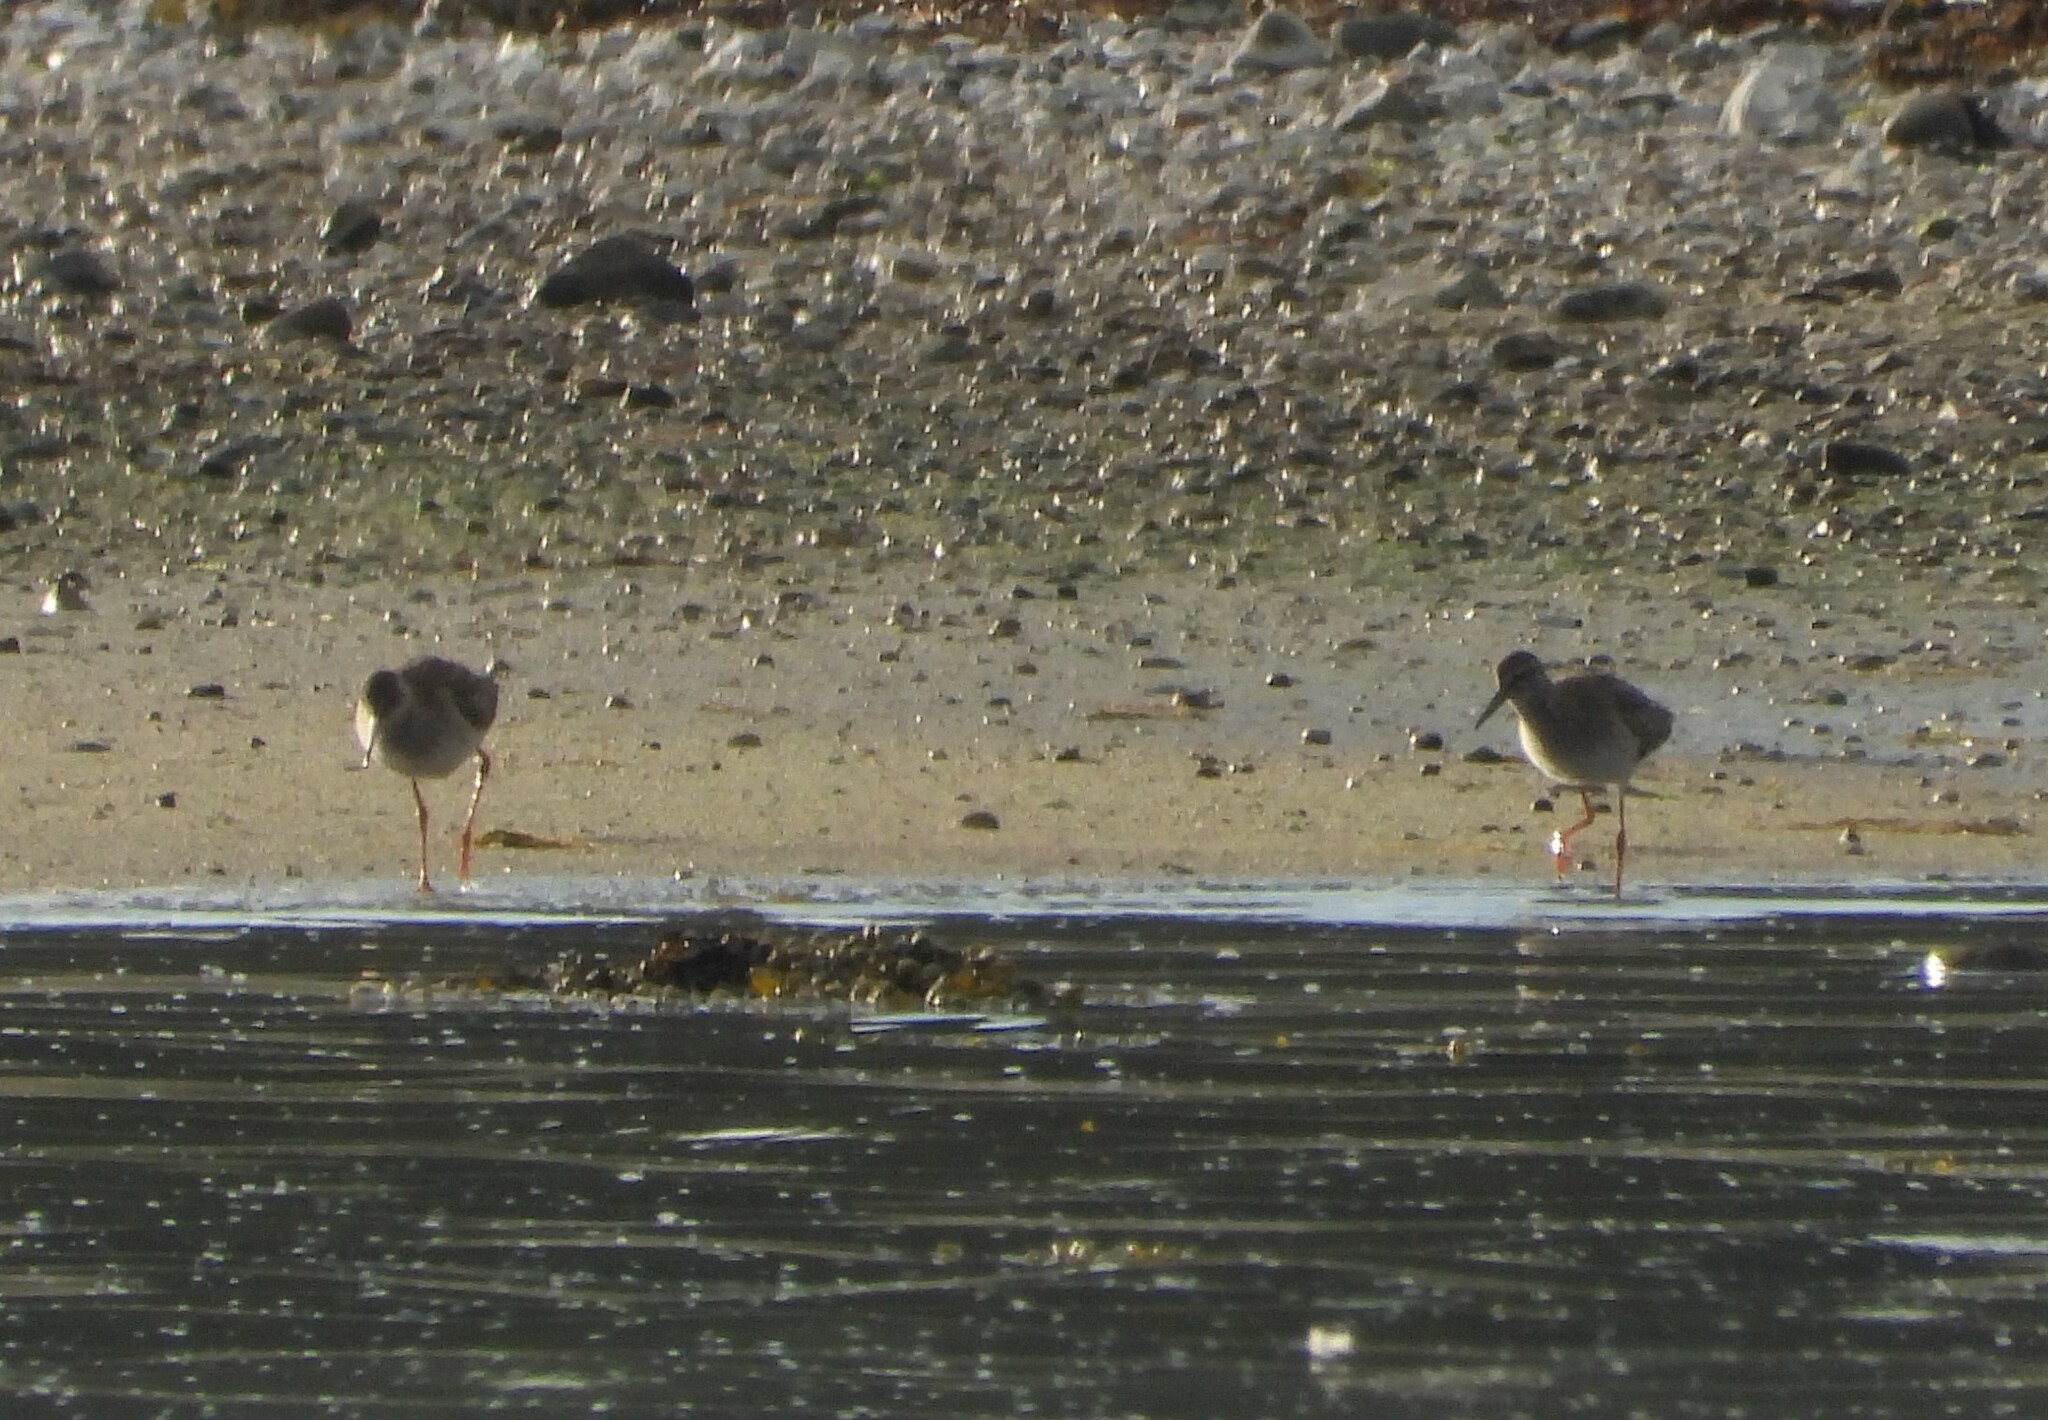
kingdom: Animalia
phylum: Chordata
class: Aves
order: Charadriiformes
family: Scolopacidae
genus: Tringa
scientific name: Tringa totanus
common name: Common redshank
